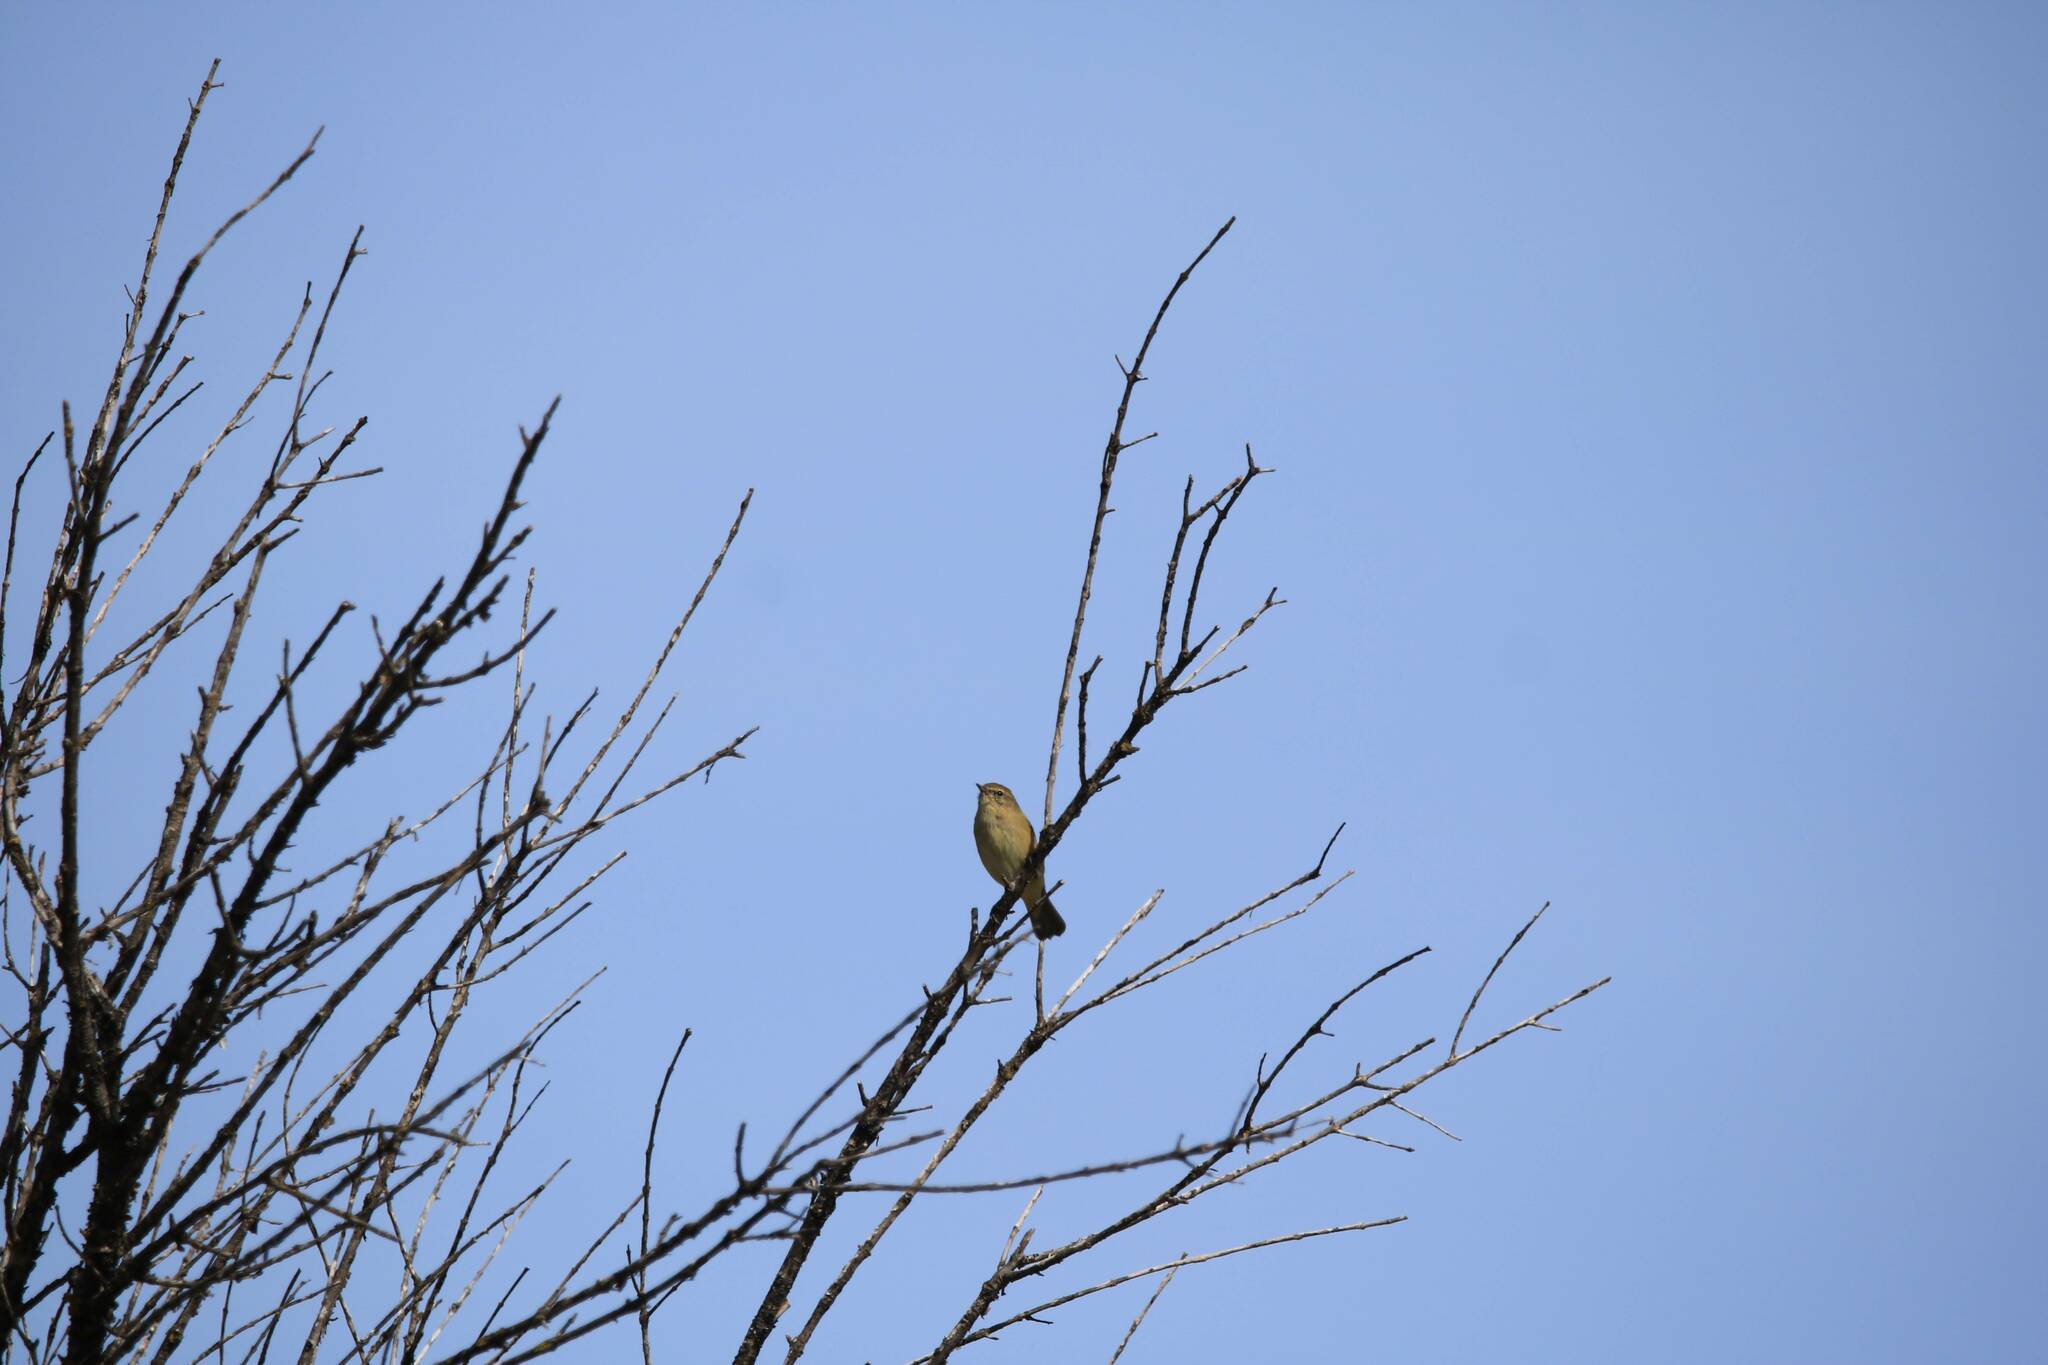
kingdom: Animalia
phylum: Chordata
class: Aves
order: Passeriformes
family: Phylloscopidae
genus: Phylloscopus
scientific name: Phylloscopus collybita
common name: Common chiffchaff
